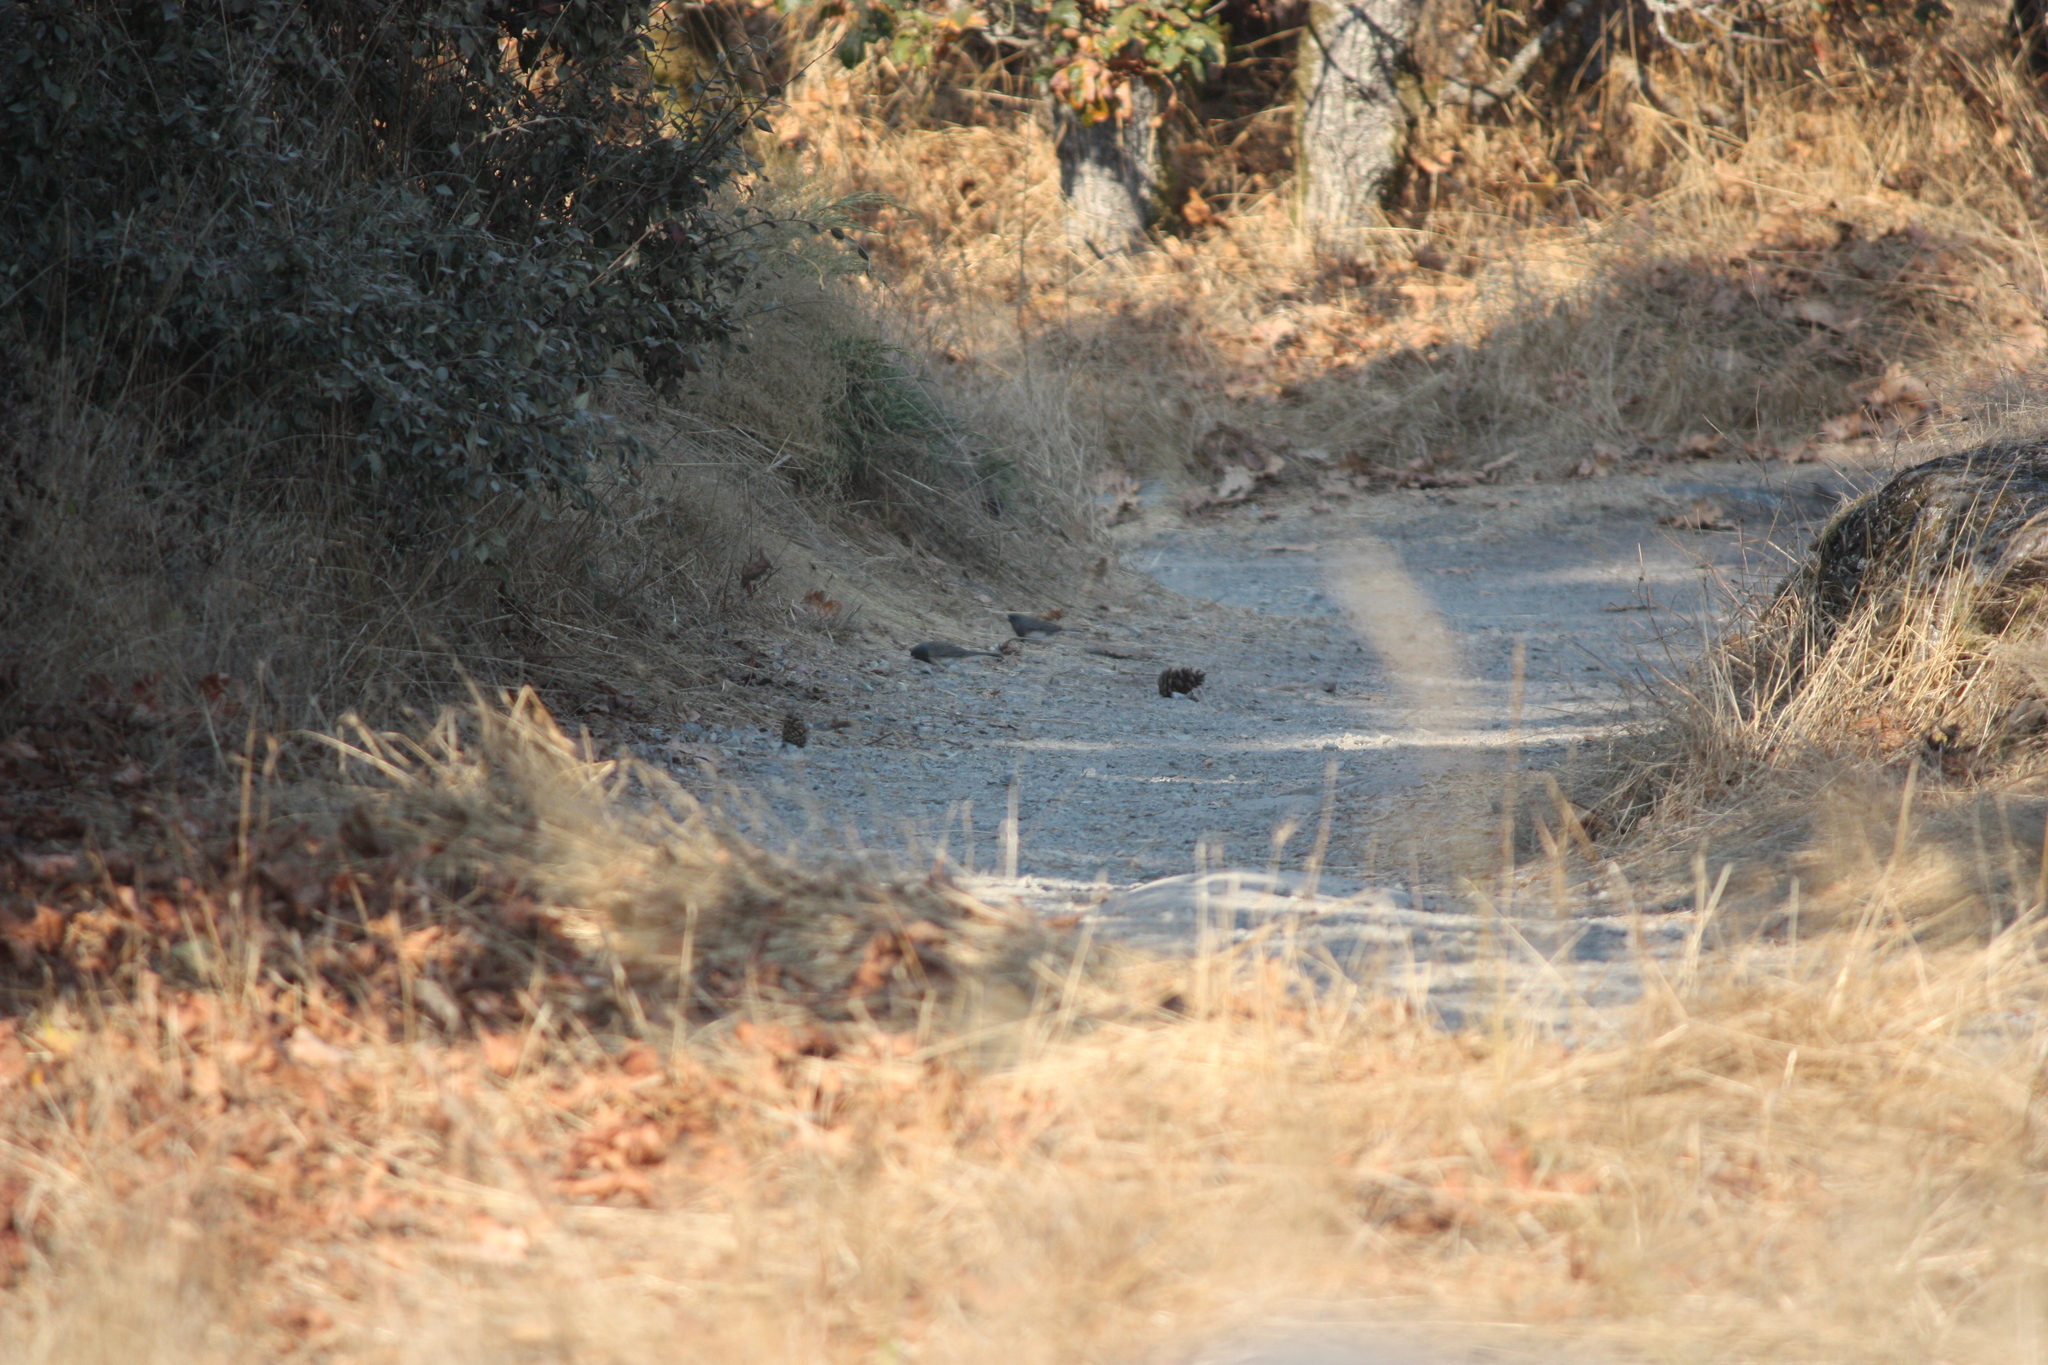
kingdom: Animalia
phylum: Chordata
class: Aves
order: Passeriformes
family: Passerellidae
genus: Junco
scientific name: Junco hyemalis
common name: Dark-eyed junco
